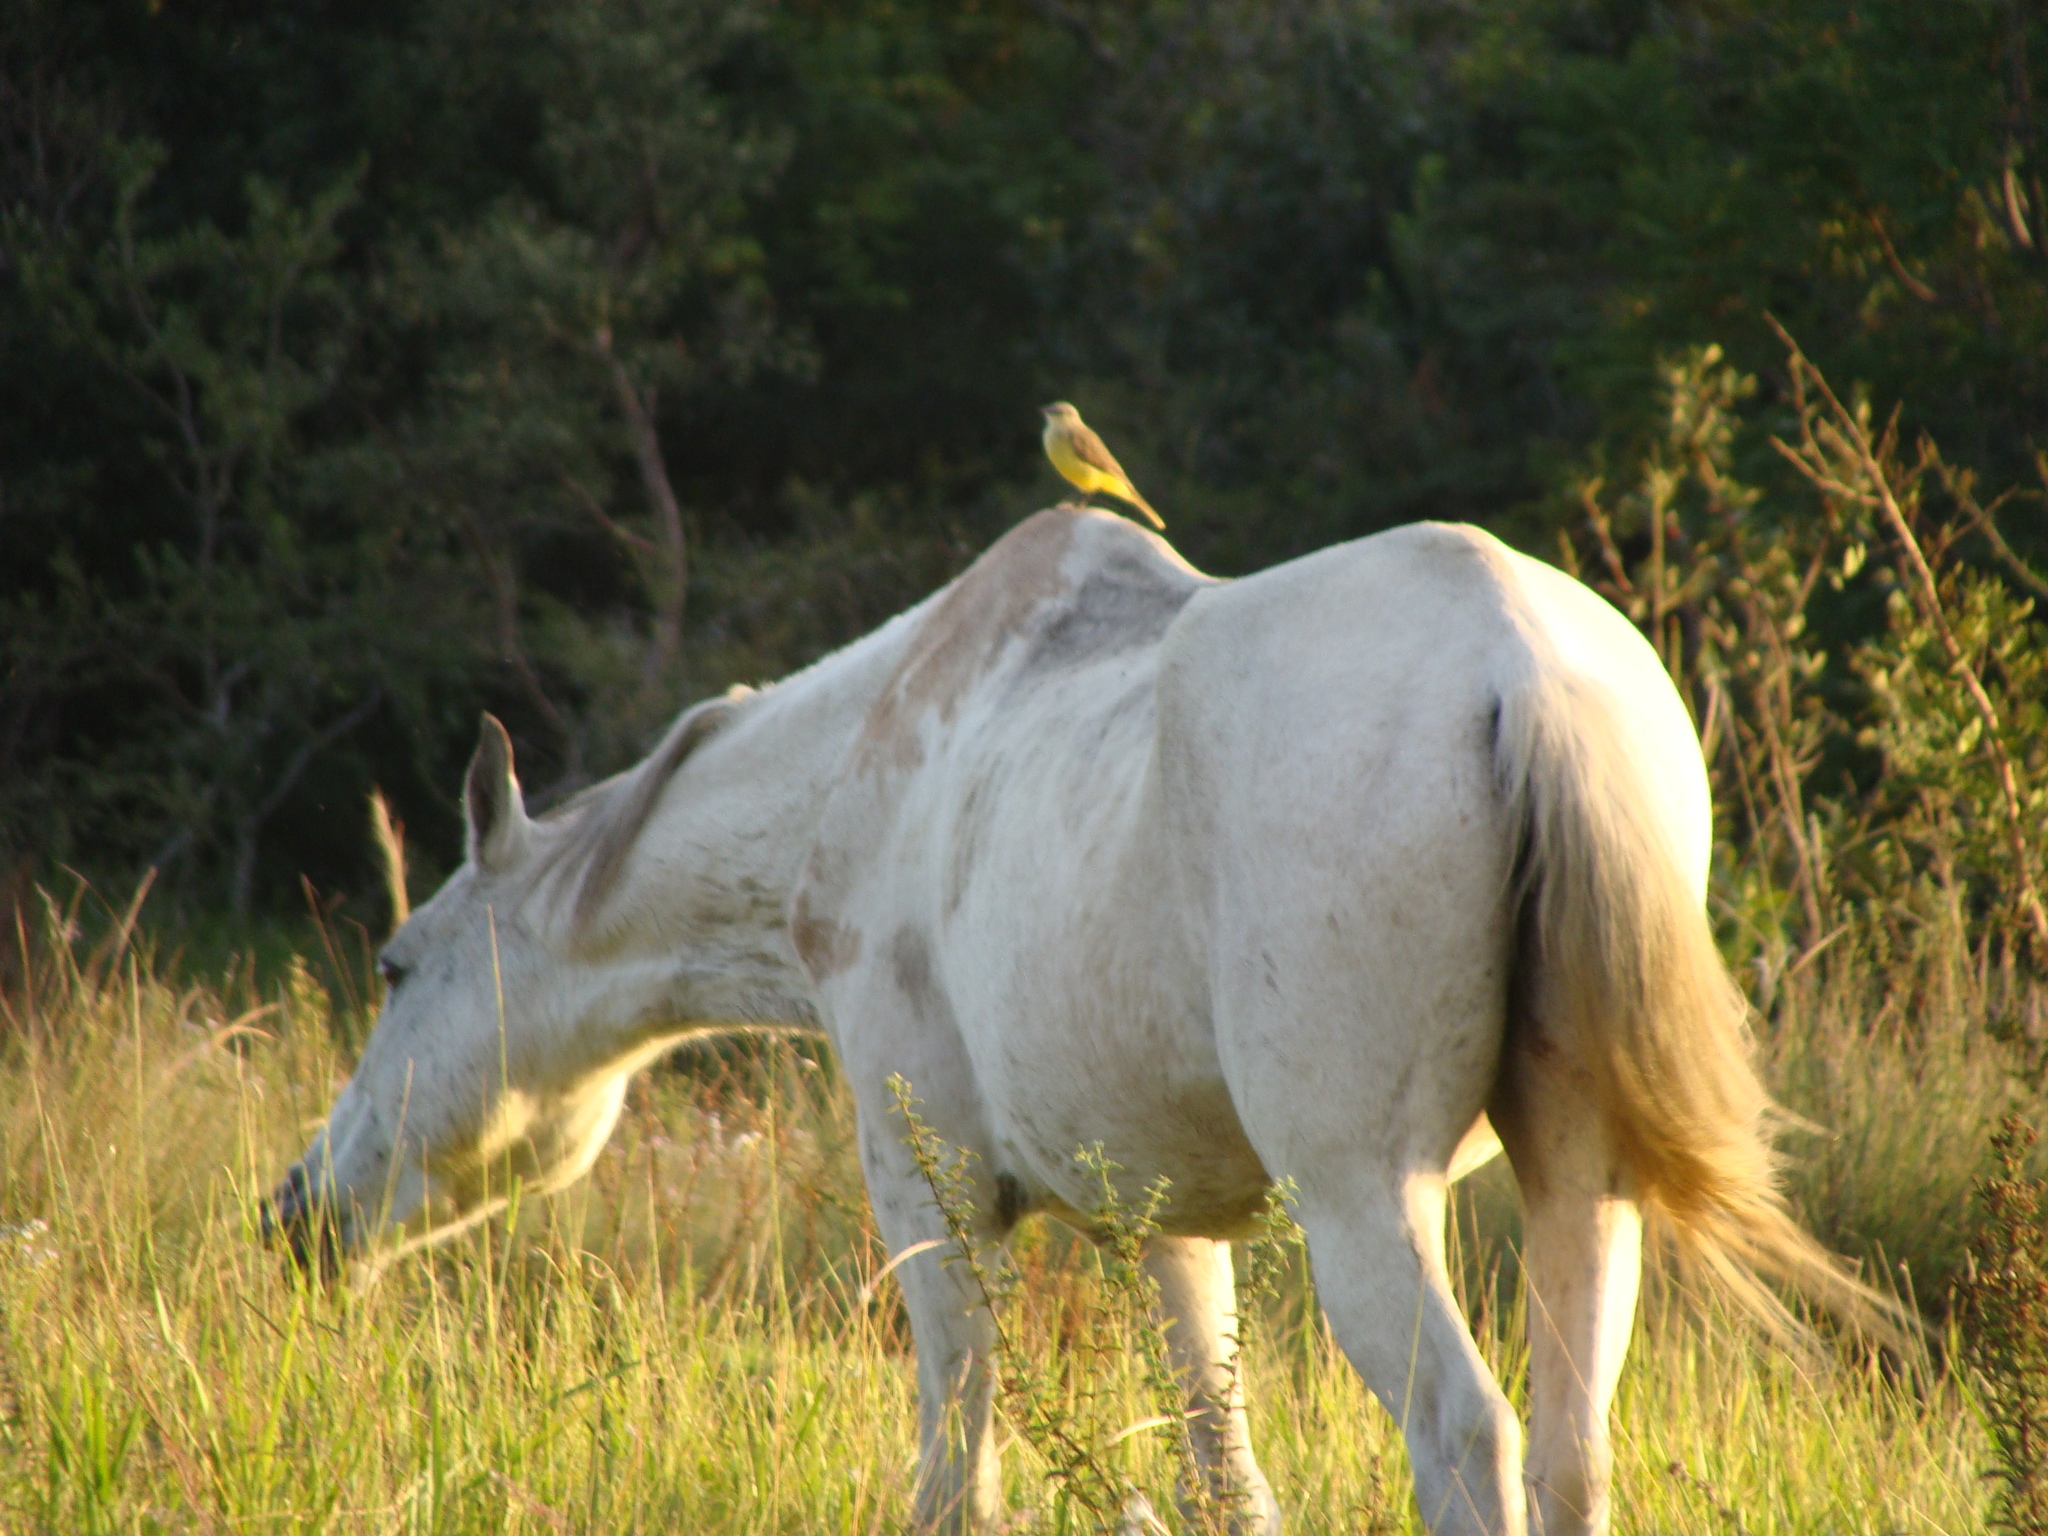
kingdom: Animalia
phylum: Chordata
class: Aves
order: Passeriformes
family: Tyrannidae
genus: Machetornis
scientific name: Machetornis rixosa
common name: Cattle tyrant
